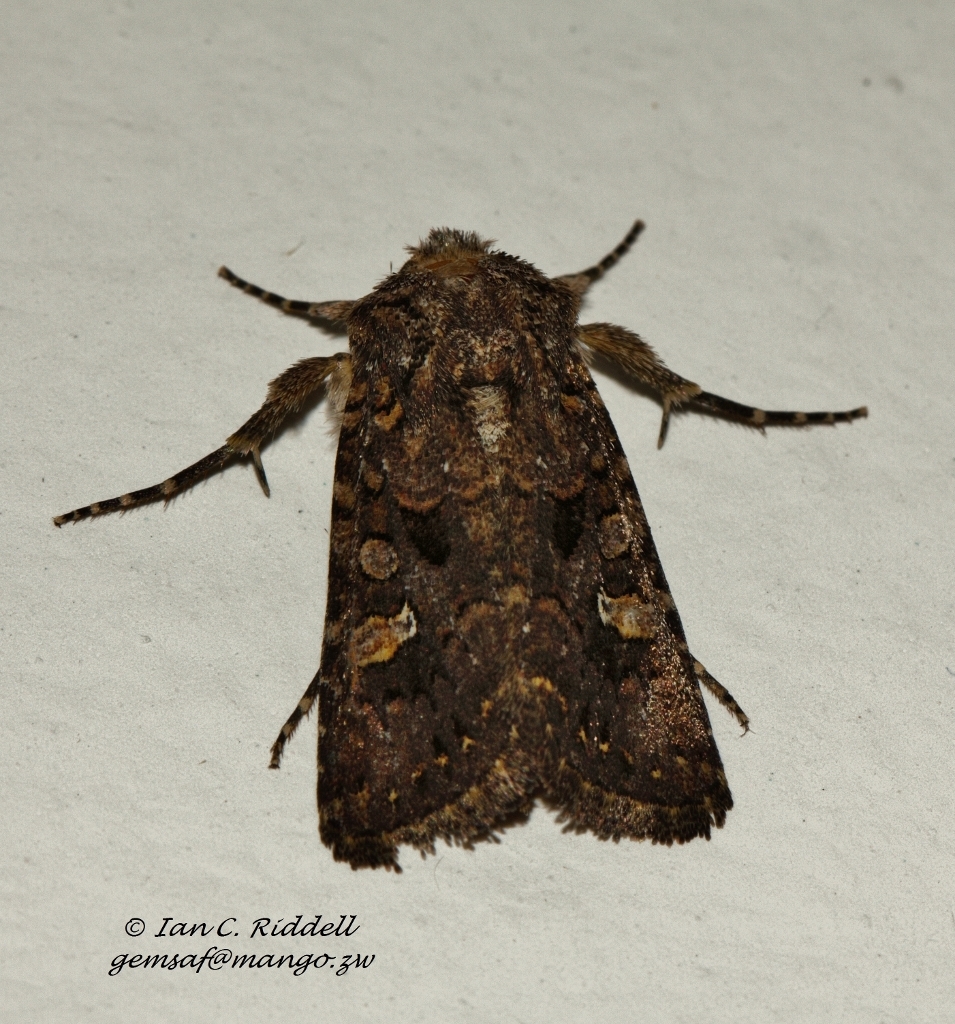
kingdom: Animalia
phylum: Arthropoda
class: Insecta
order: Lepidoptera
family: Noctuidae
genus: Tycomarptes
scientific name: Tycomarptes inferior
